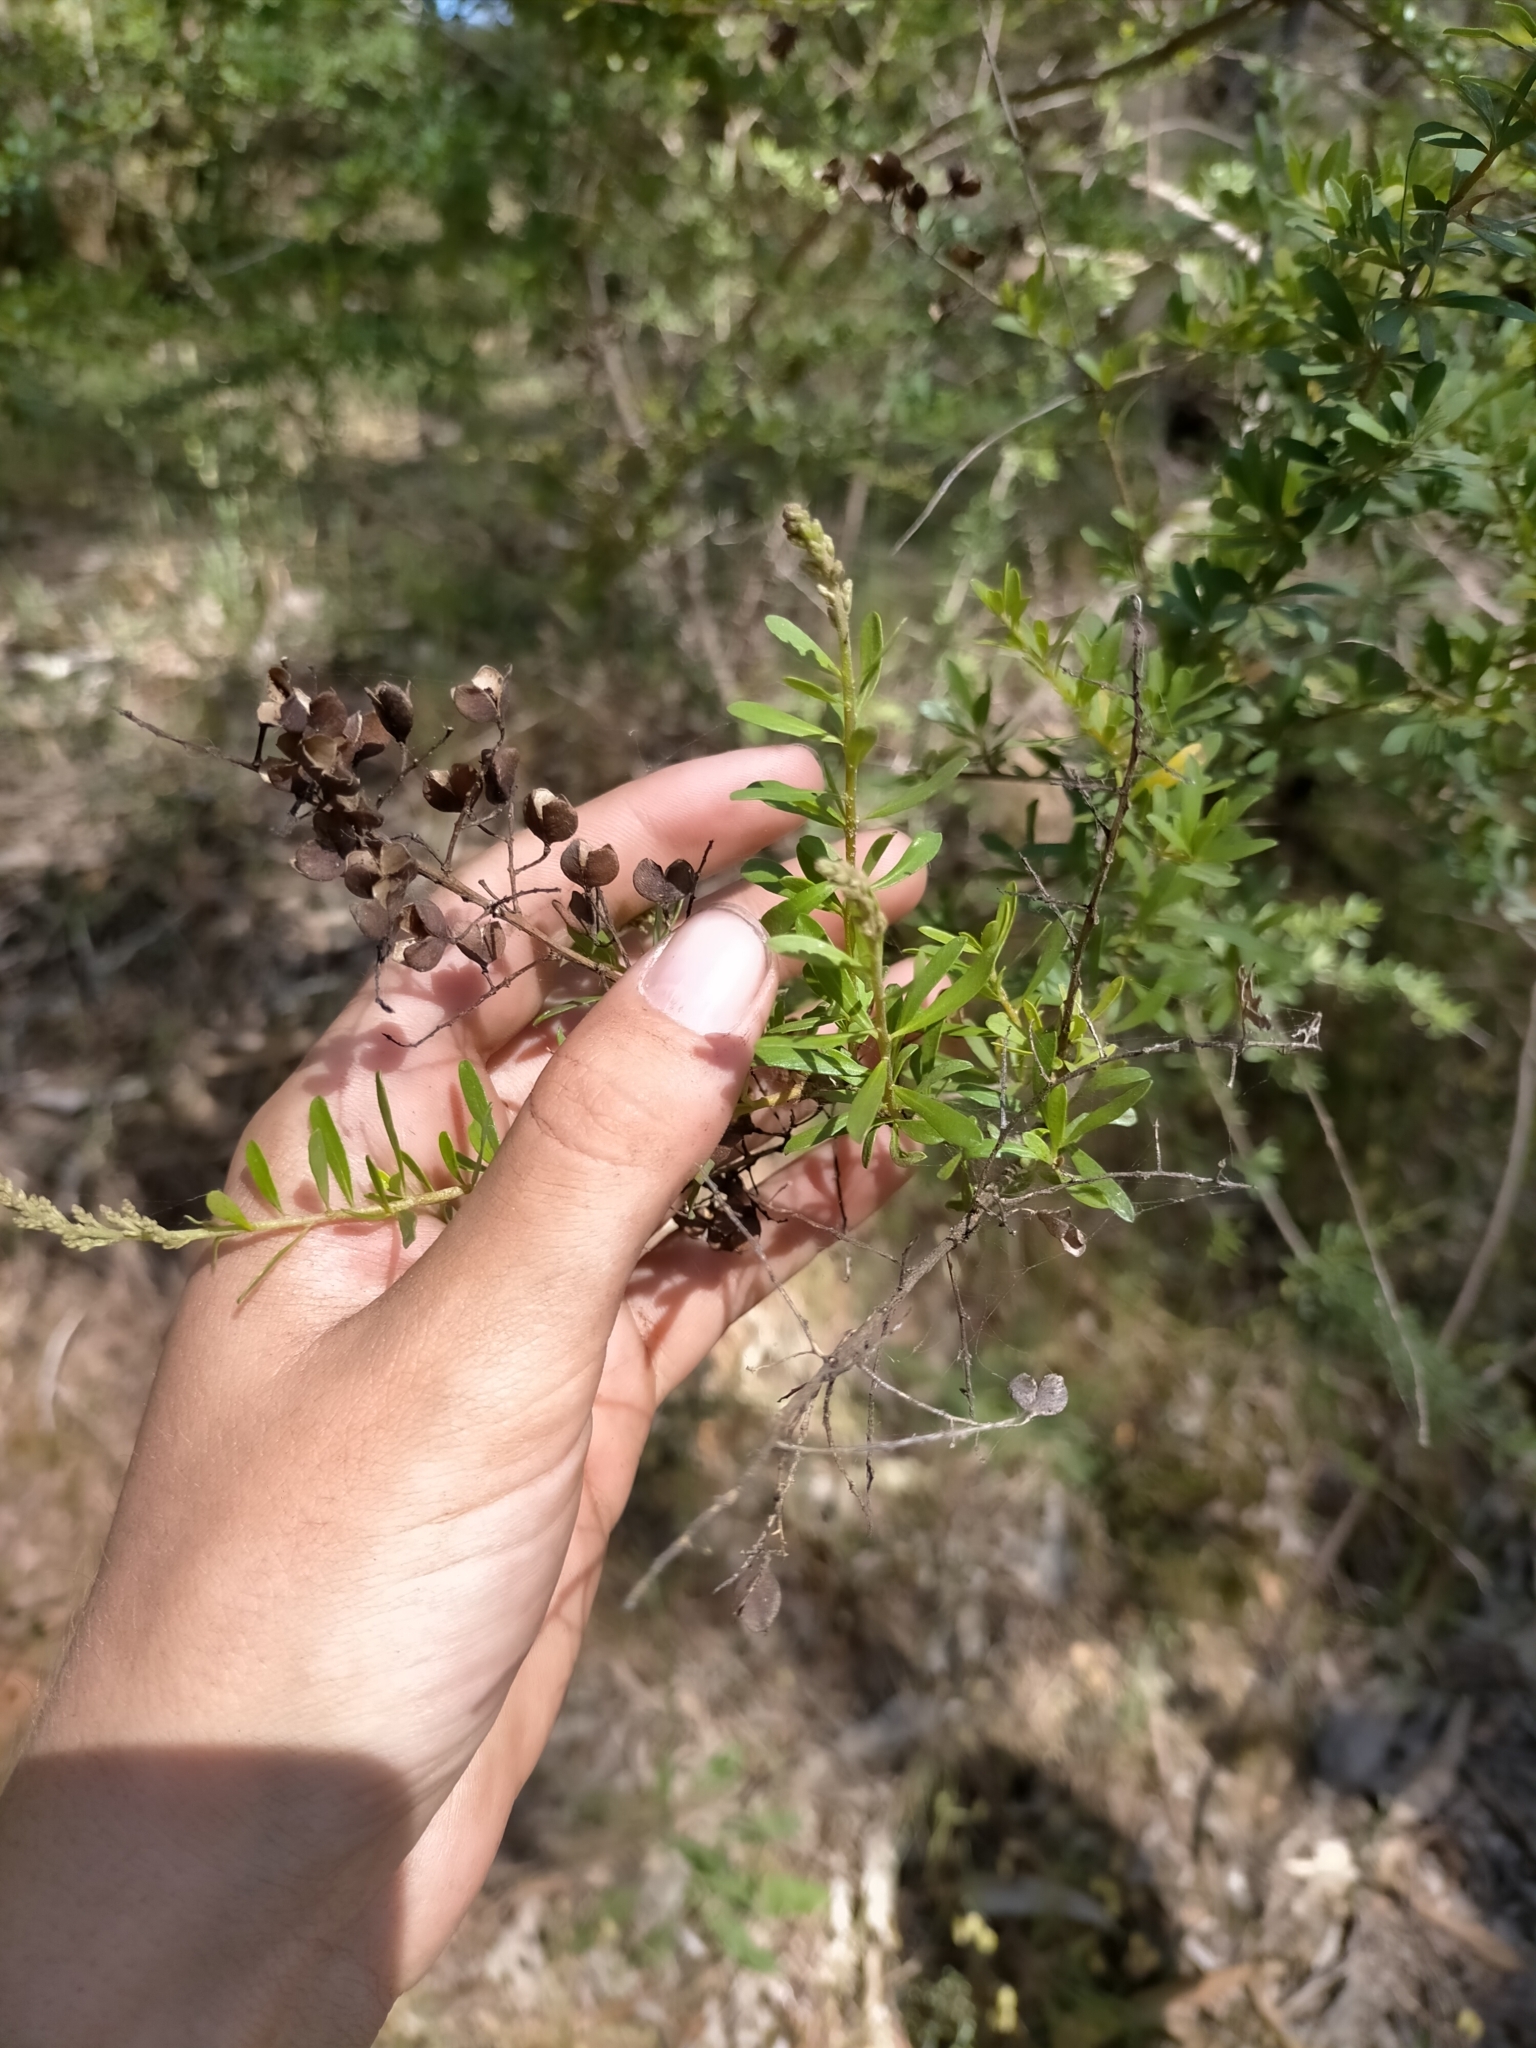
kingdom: Plantae
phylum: Tracheophyta
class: Magnoliopsida
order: Apiales
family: Pittosporaceae
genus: Bursaria
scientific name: Bursaria spinosa
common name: Australian blackthorn
